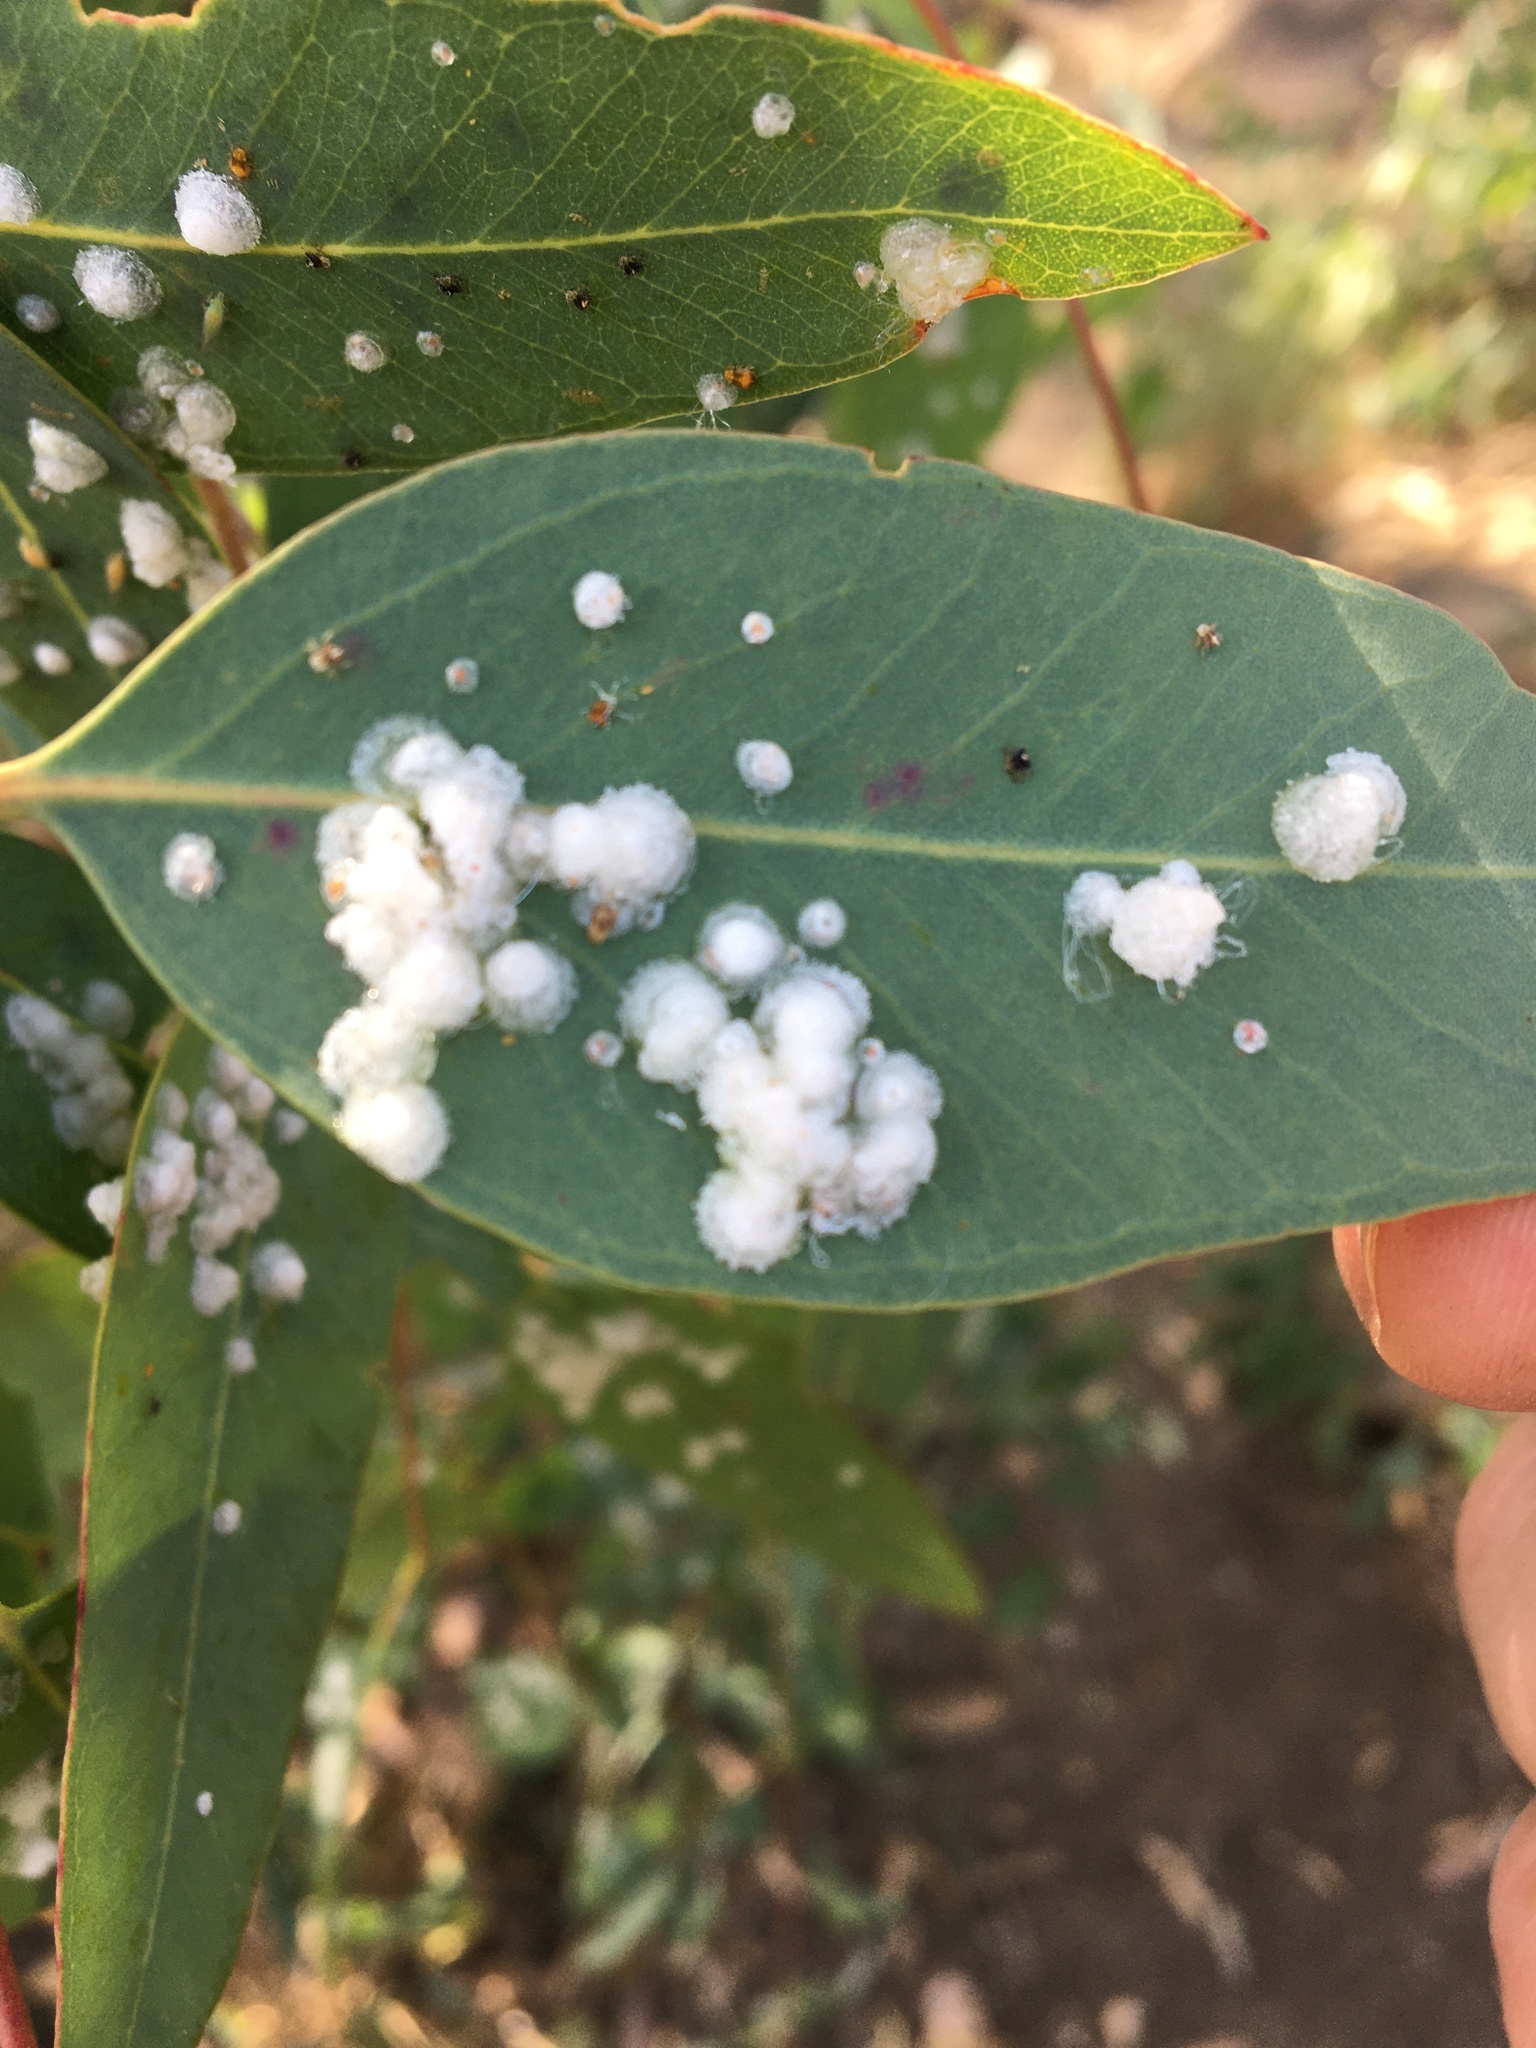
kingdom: Animalia
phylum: Arthropoda
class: Insecta
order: Hemiptera
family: Aphalaridae
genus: Glycaspis
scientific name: Glycaspis brimblecombei
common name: Red gum lerp psyllid
